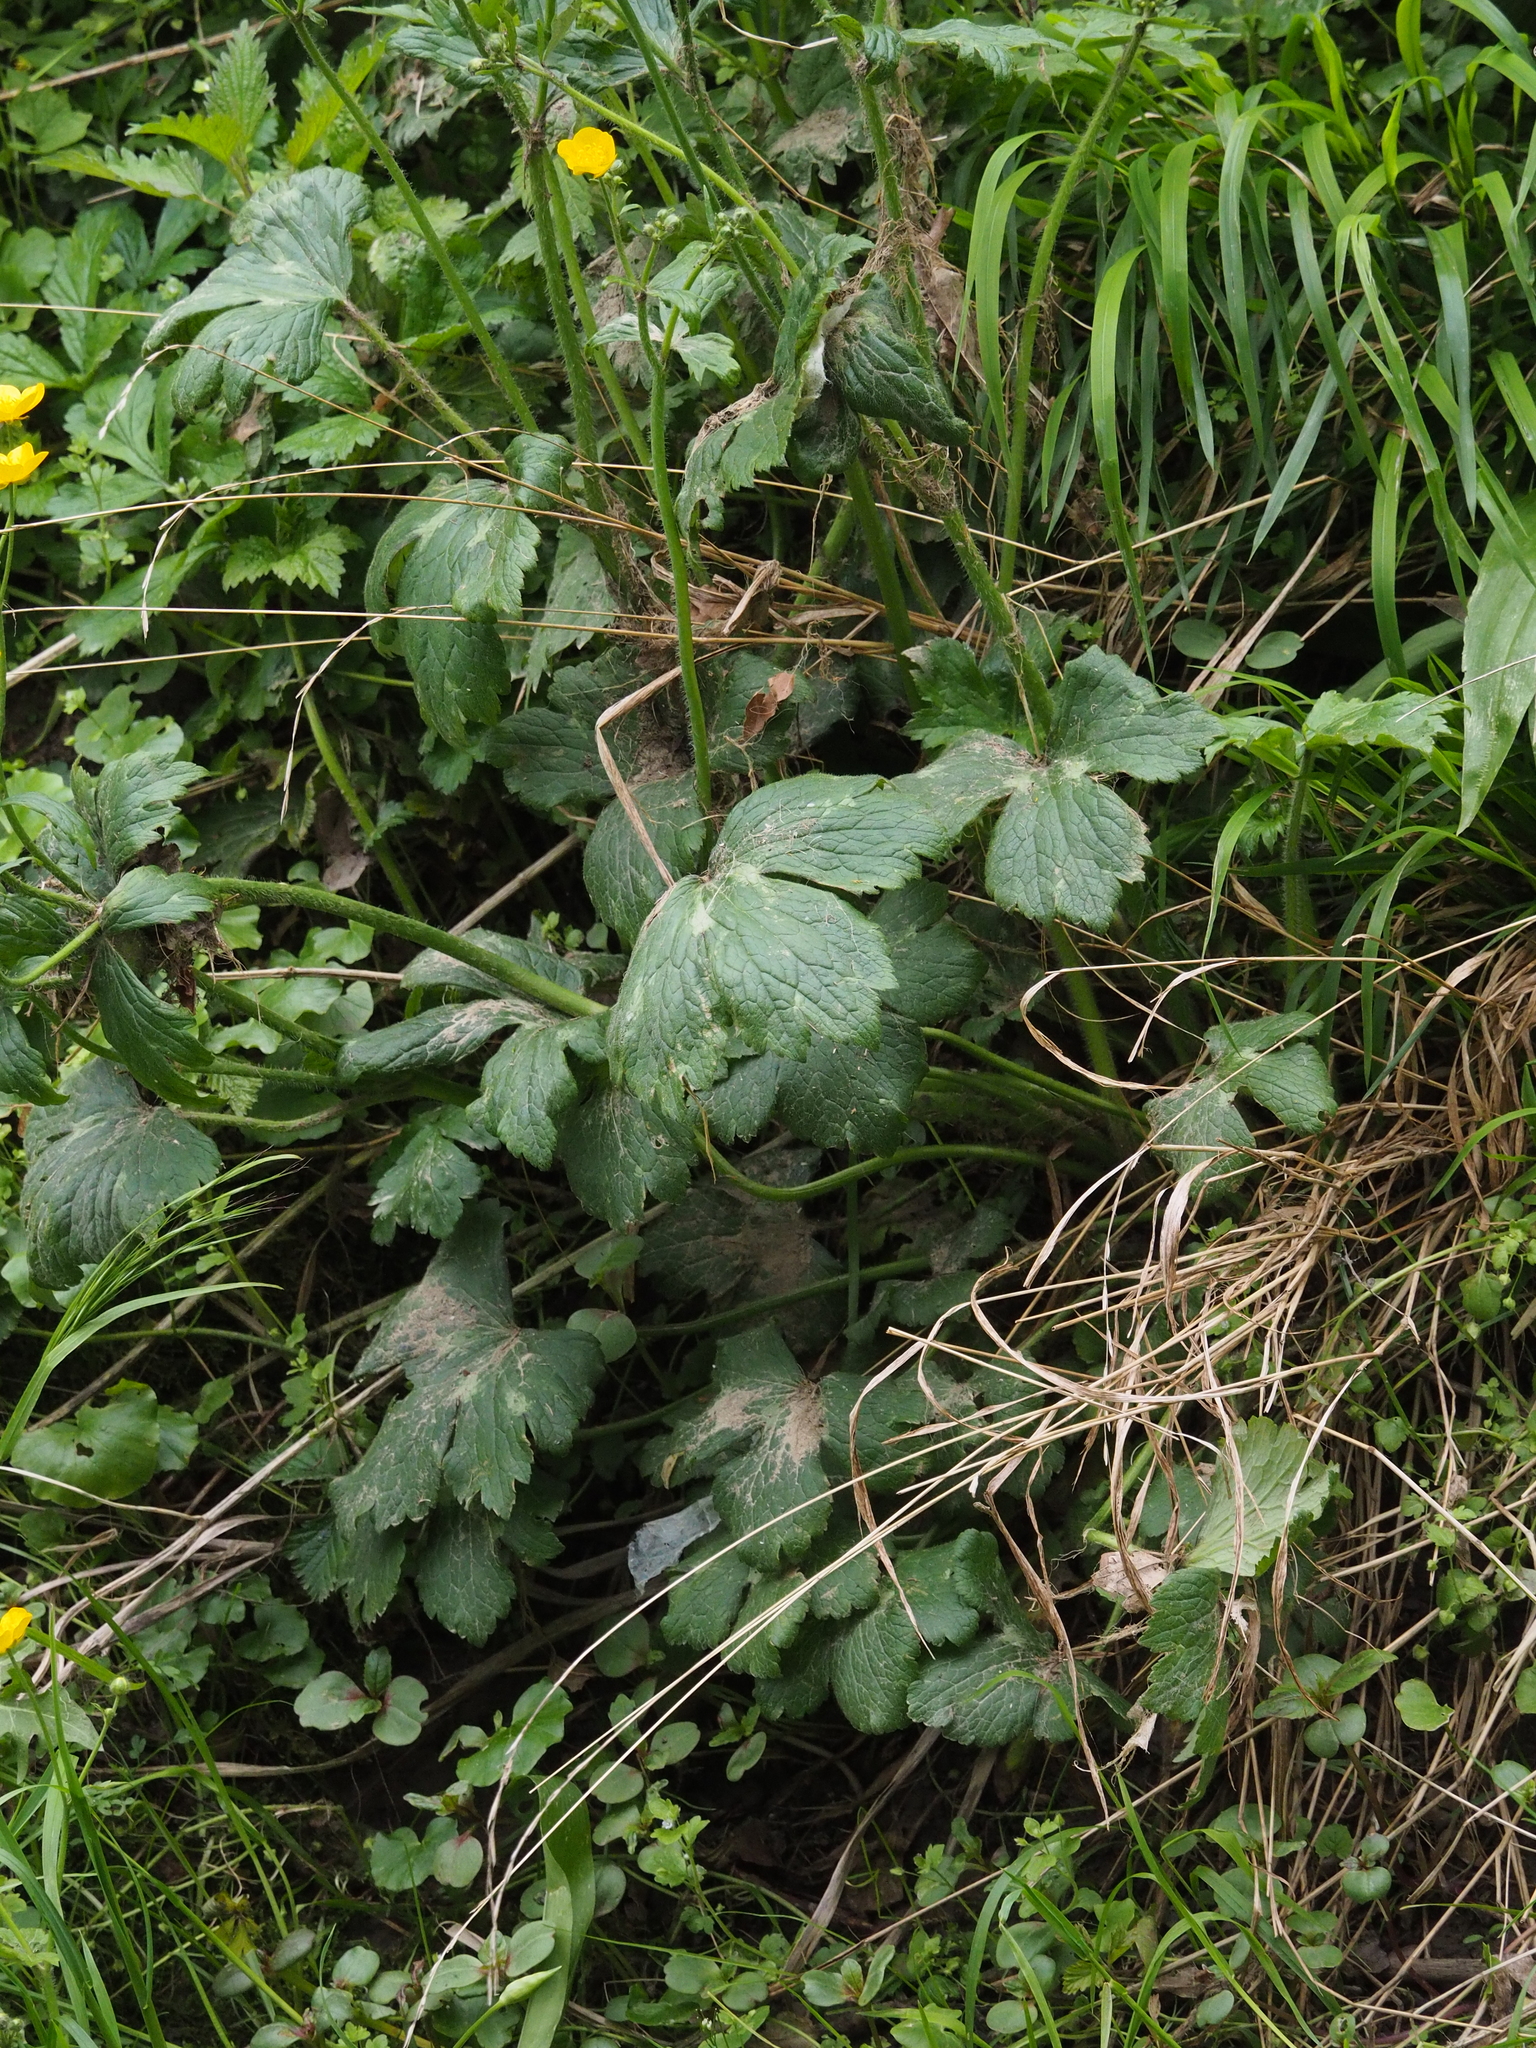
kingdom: Plantae
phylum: Tracheophyta
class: Magnoliopsida
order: Ranunculales
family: Ranunculaceae
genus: Ranunculus
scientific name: Ranunculus lanuginosus
